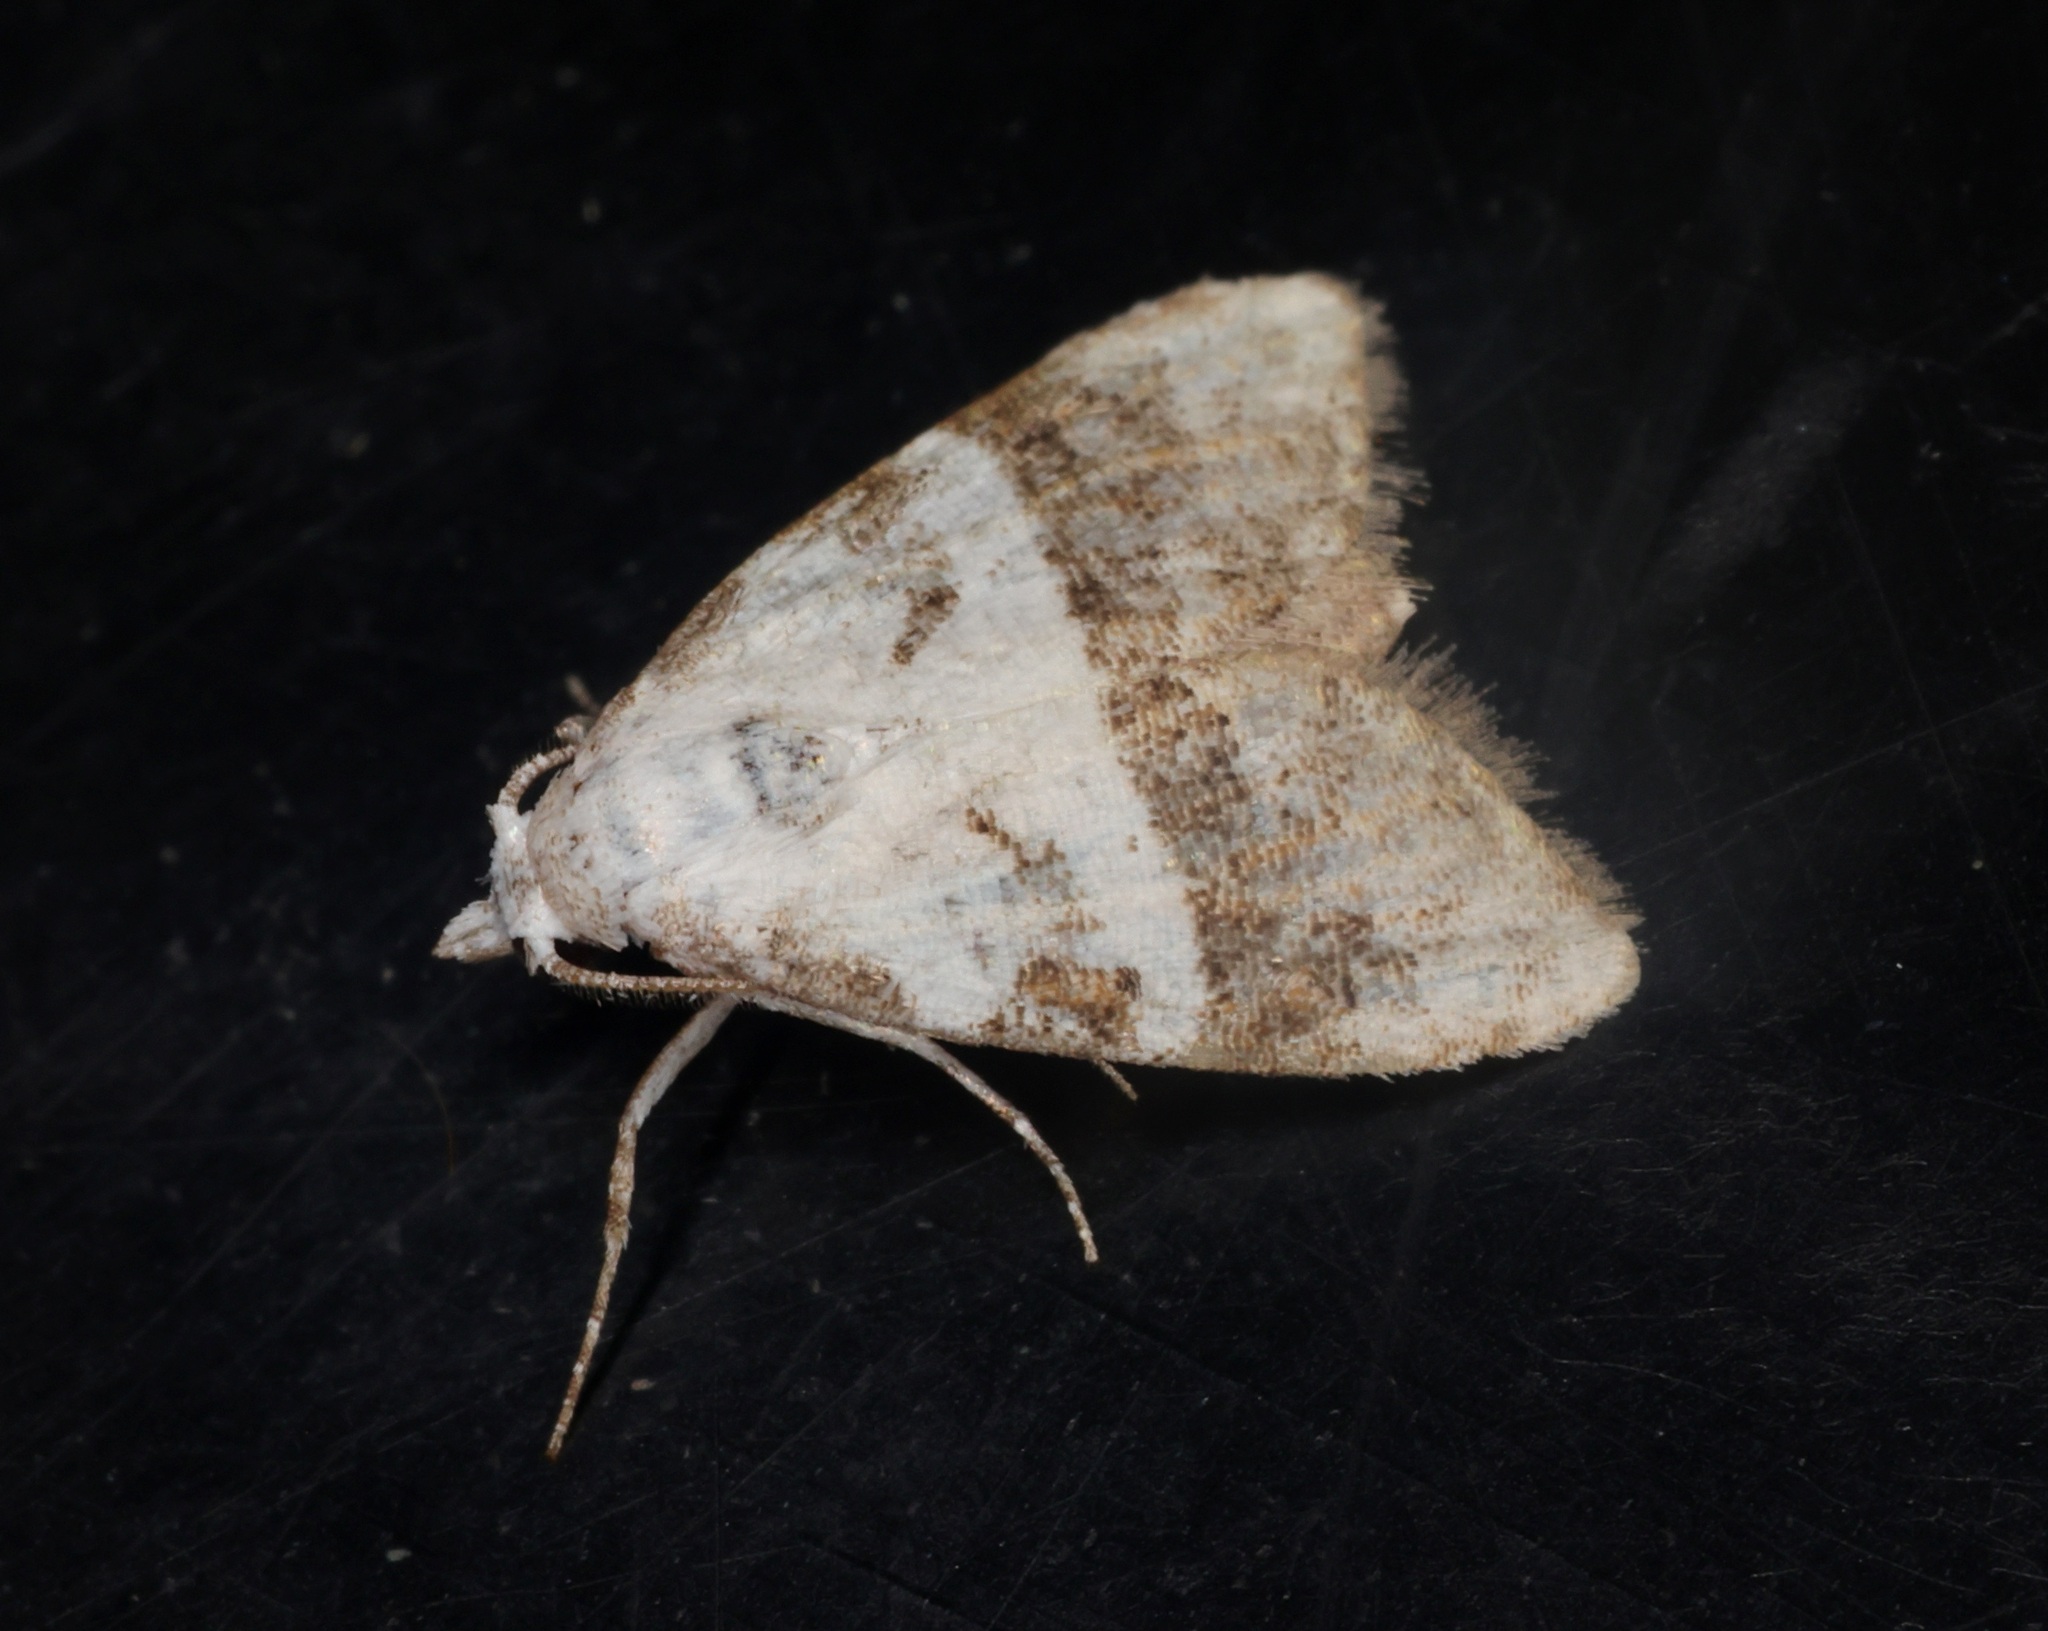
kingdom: Animalia
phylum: Arthropoda
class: Insecta
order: Lepidoptera
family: Nolidae
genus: Nola
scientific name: Nola lucidalis
